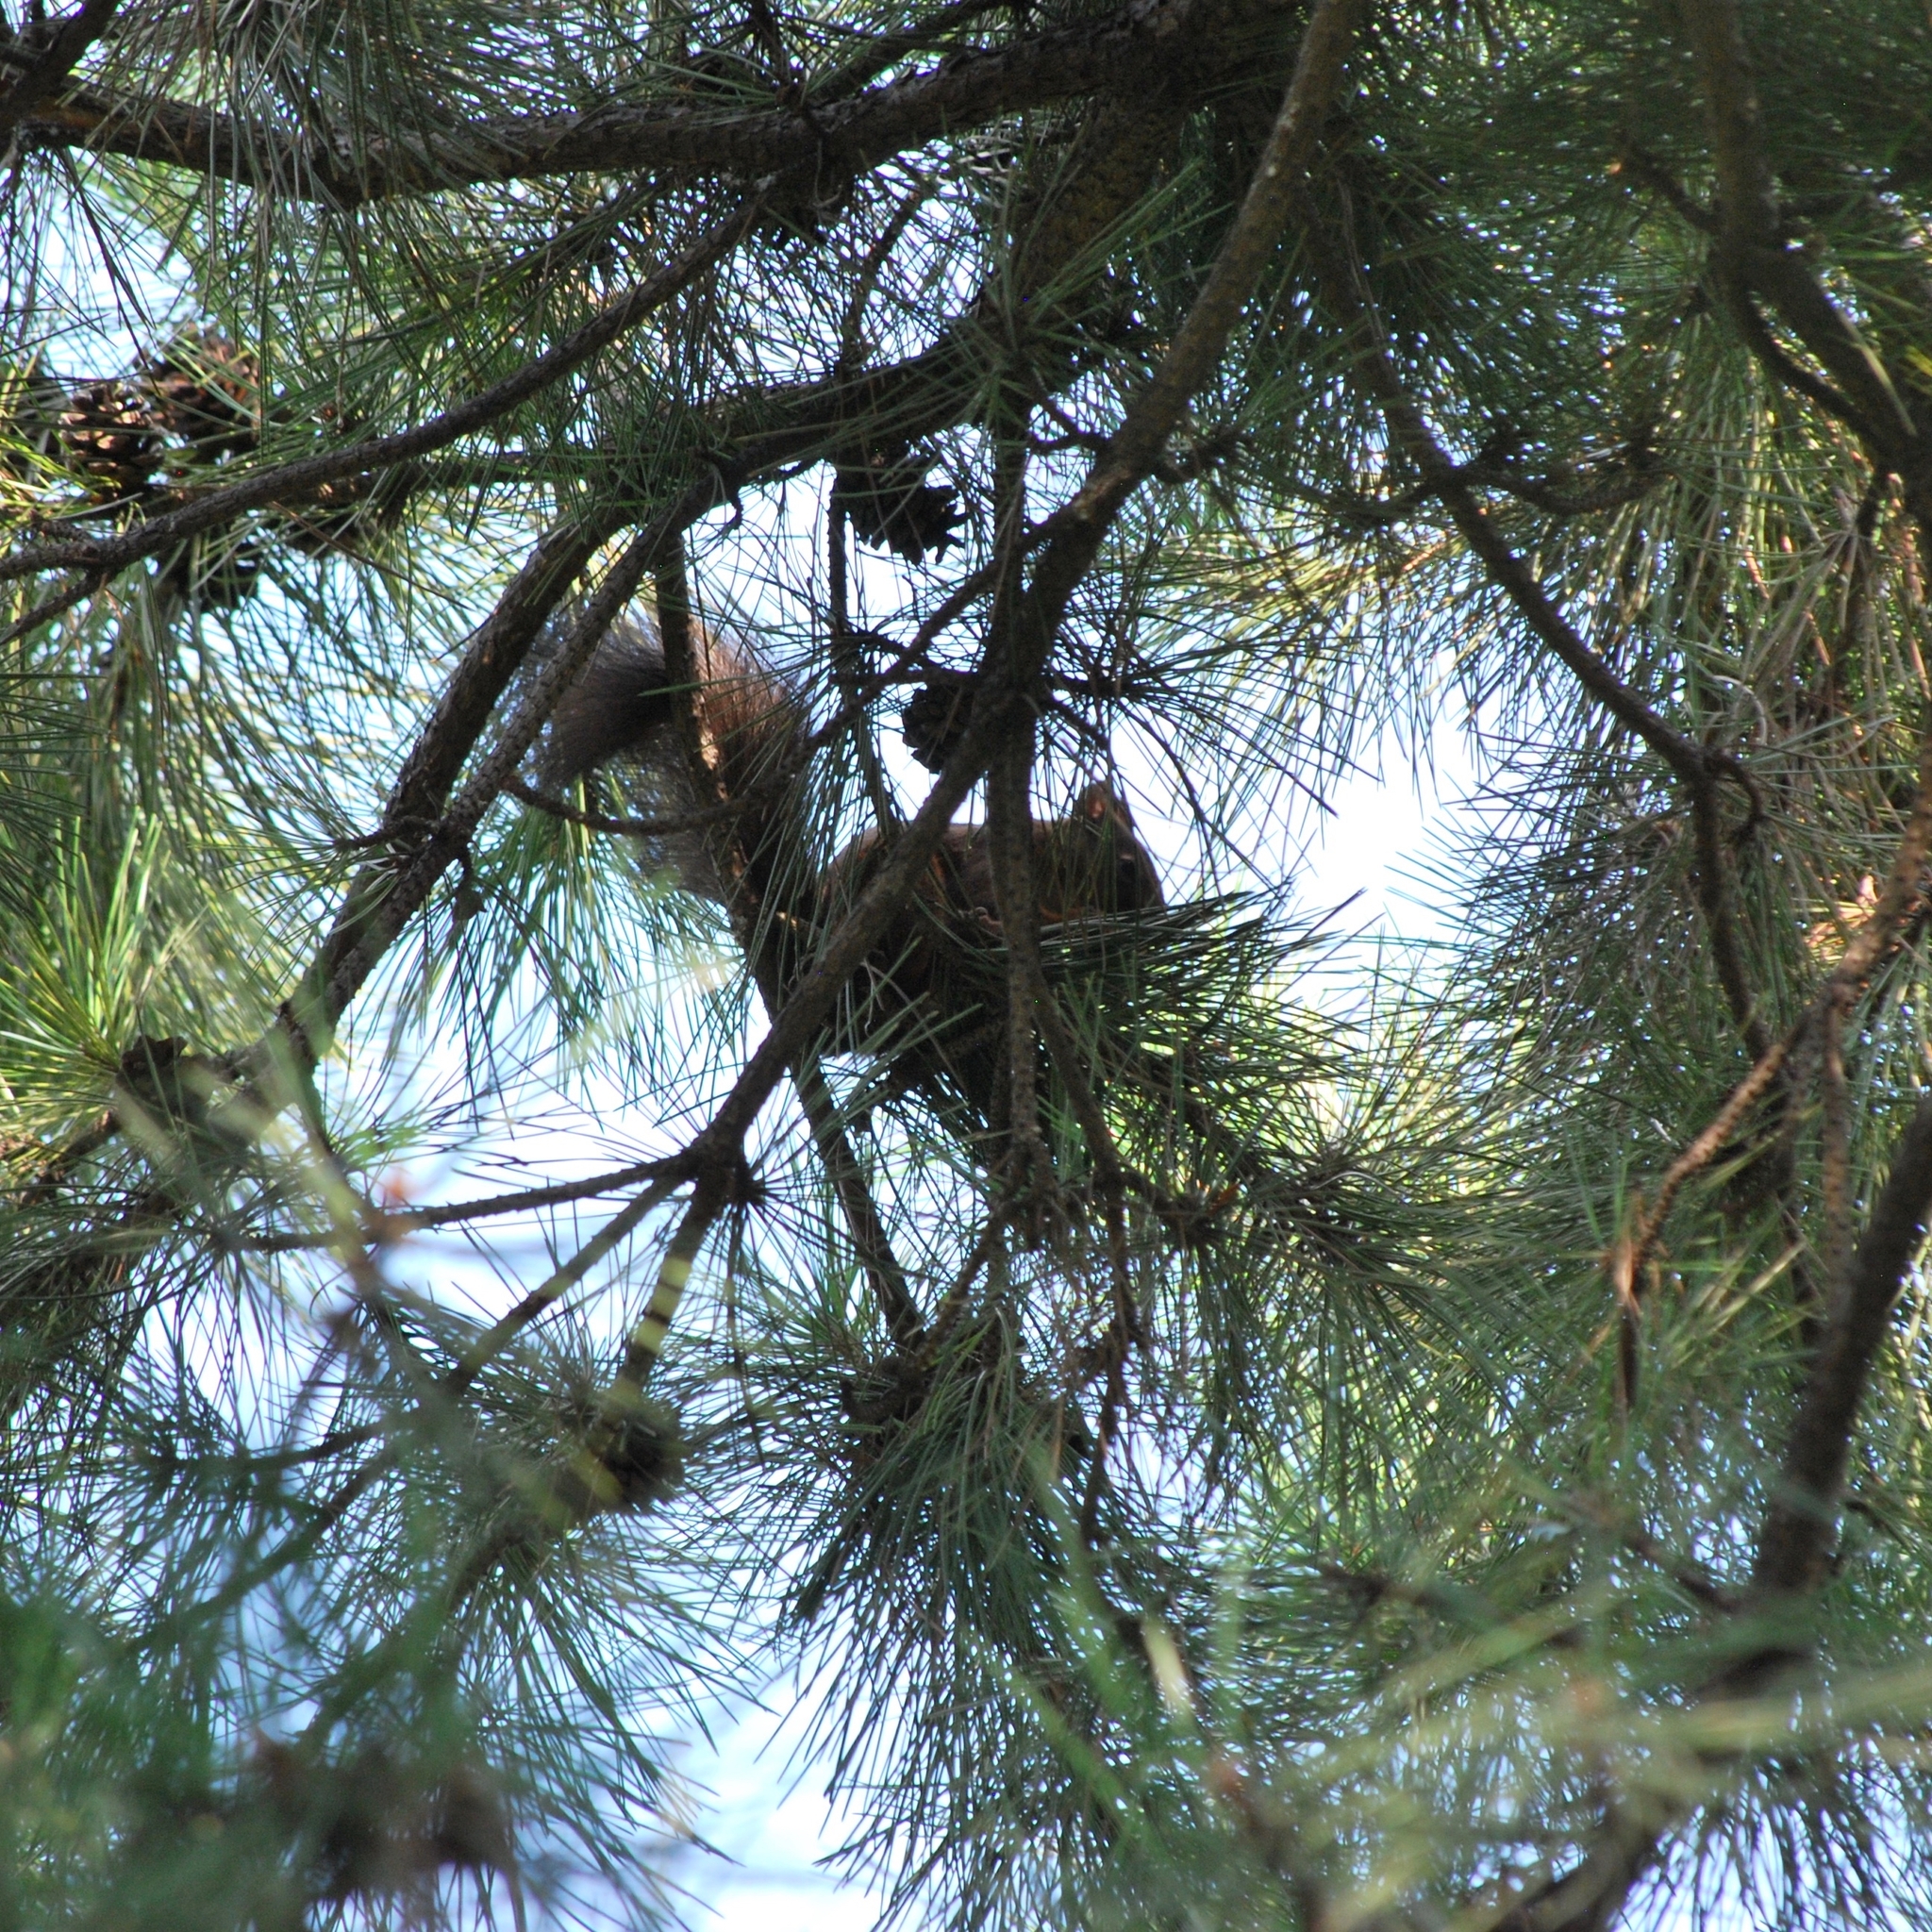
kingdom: Animalia
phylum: Chordata
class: Mammalia
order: Rodentia
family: Sciuridae
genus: Sciurus
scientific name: Sciurus vulgaris
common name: Eurasian red squirrel
